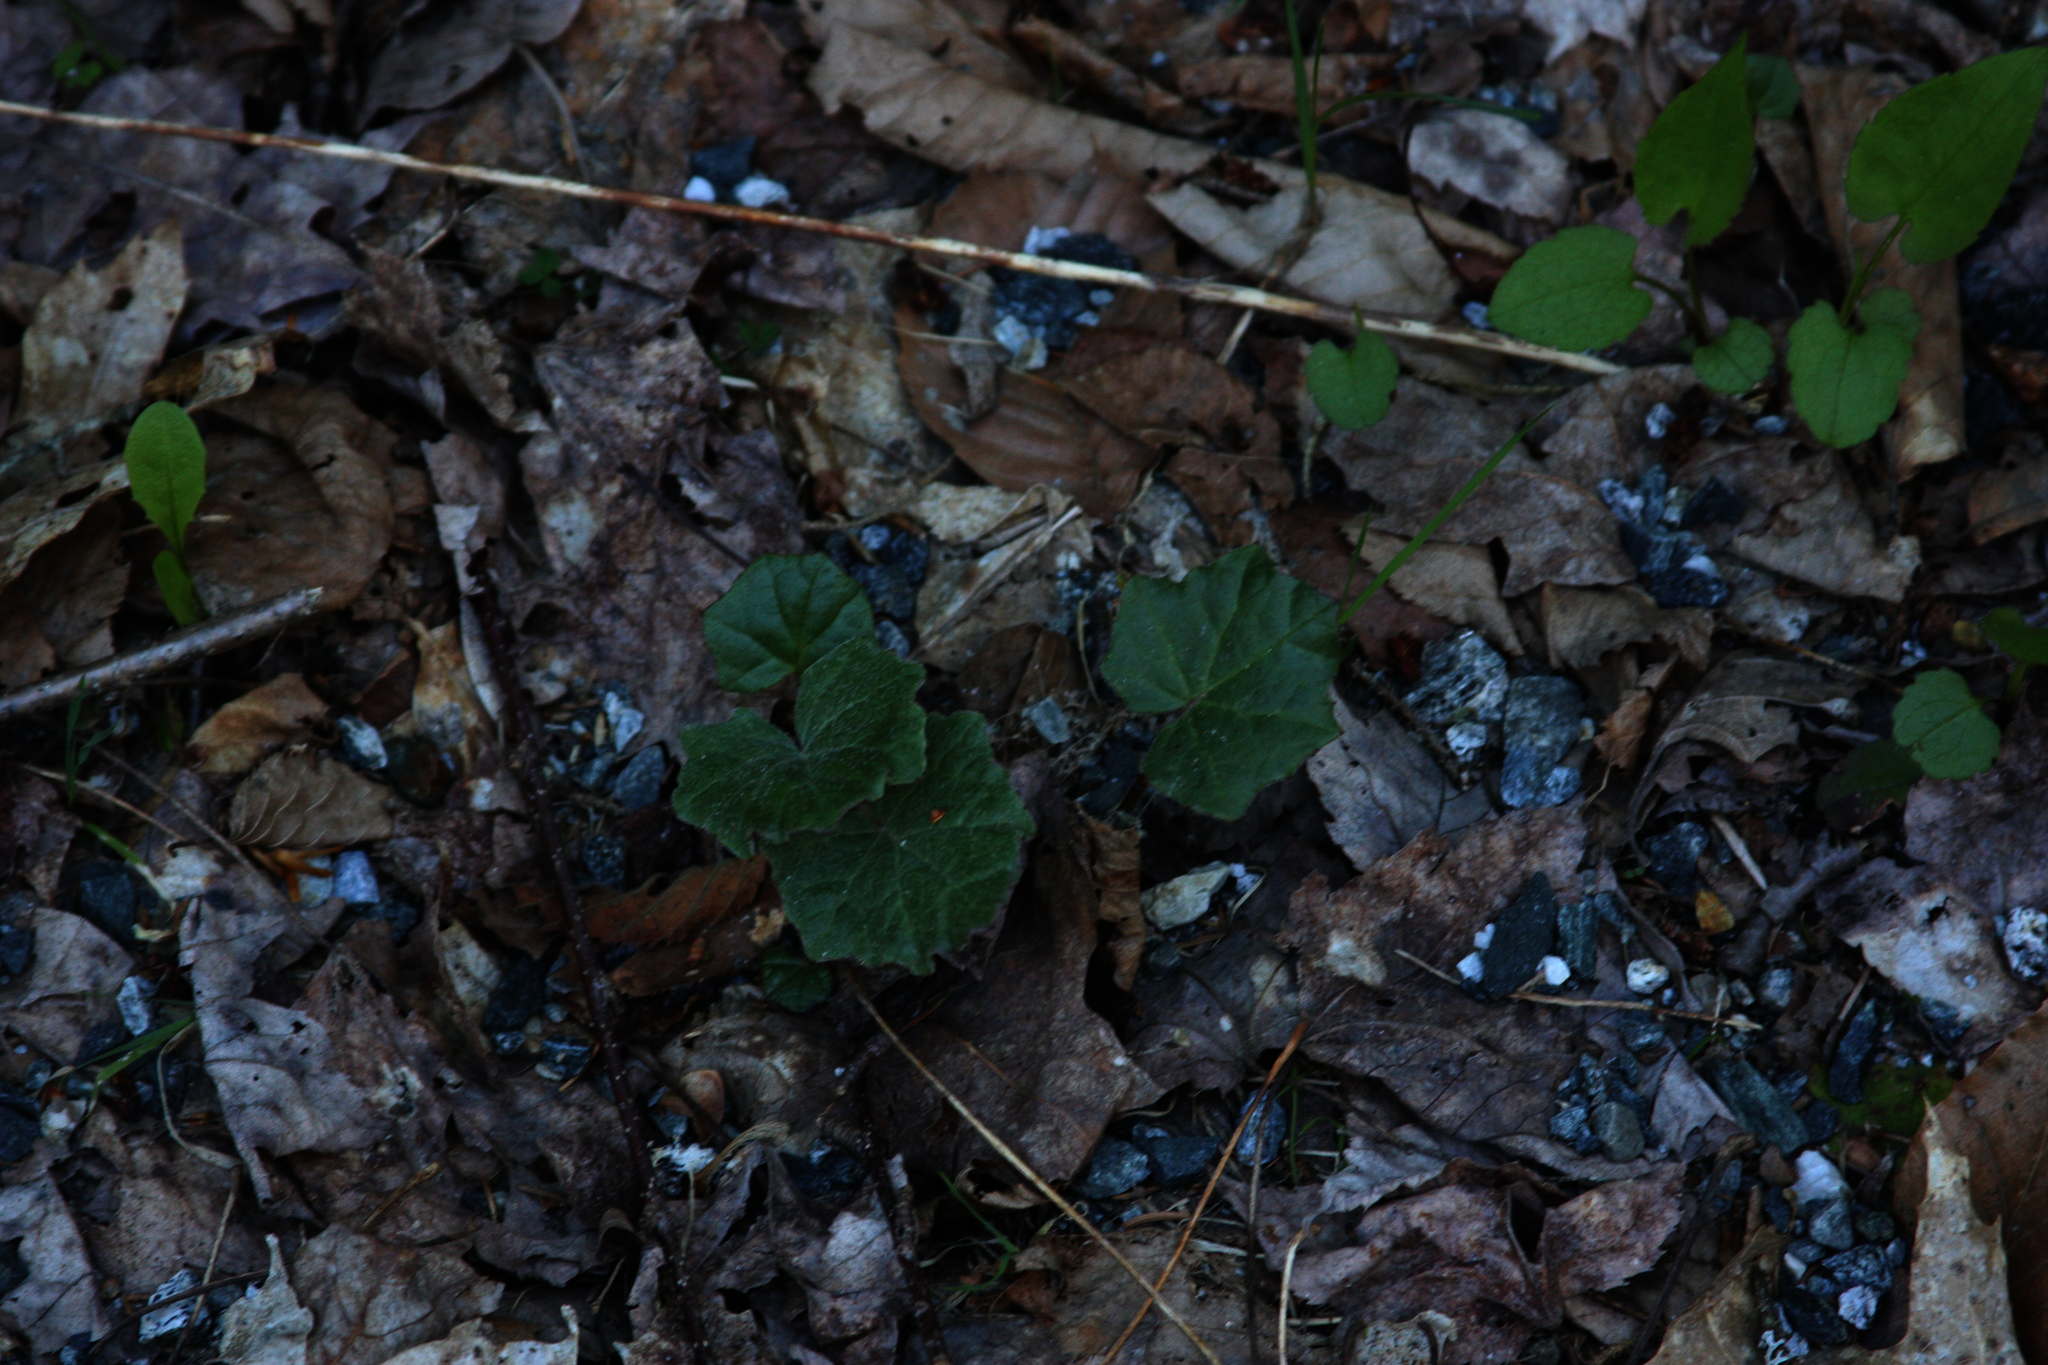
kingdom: Plantae
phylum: Tracheophyta
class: Magnoliopsida
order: Asterales
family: Asteraceae
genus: Tussilago
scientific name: Tussilago farfara
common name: Coltsfoot
